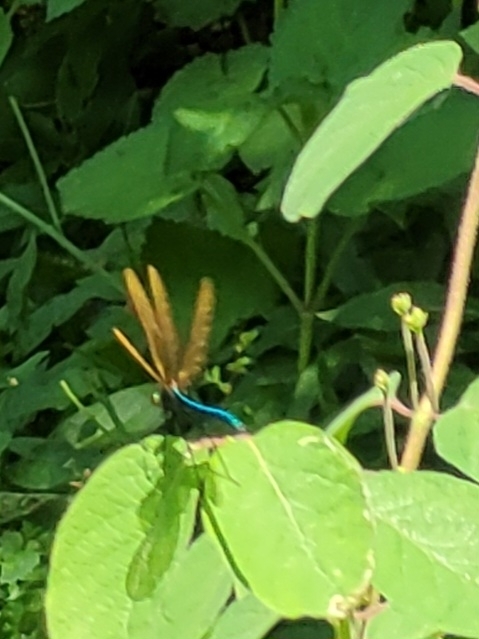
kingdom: Animalia
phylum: Arthropoda
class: Insecta
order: Odonata
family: Calopterygidae
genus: Calopteryx
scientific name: Calopteryx virgo
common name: Beautiful demoiselle
